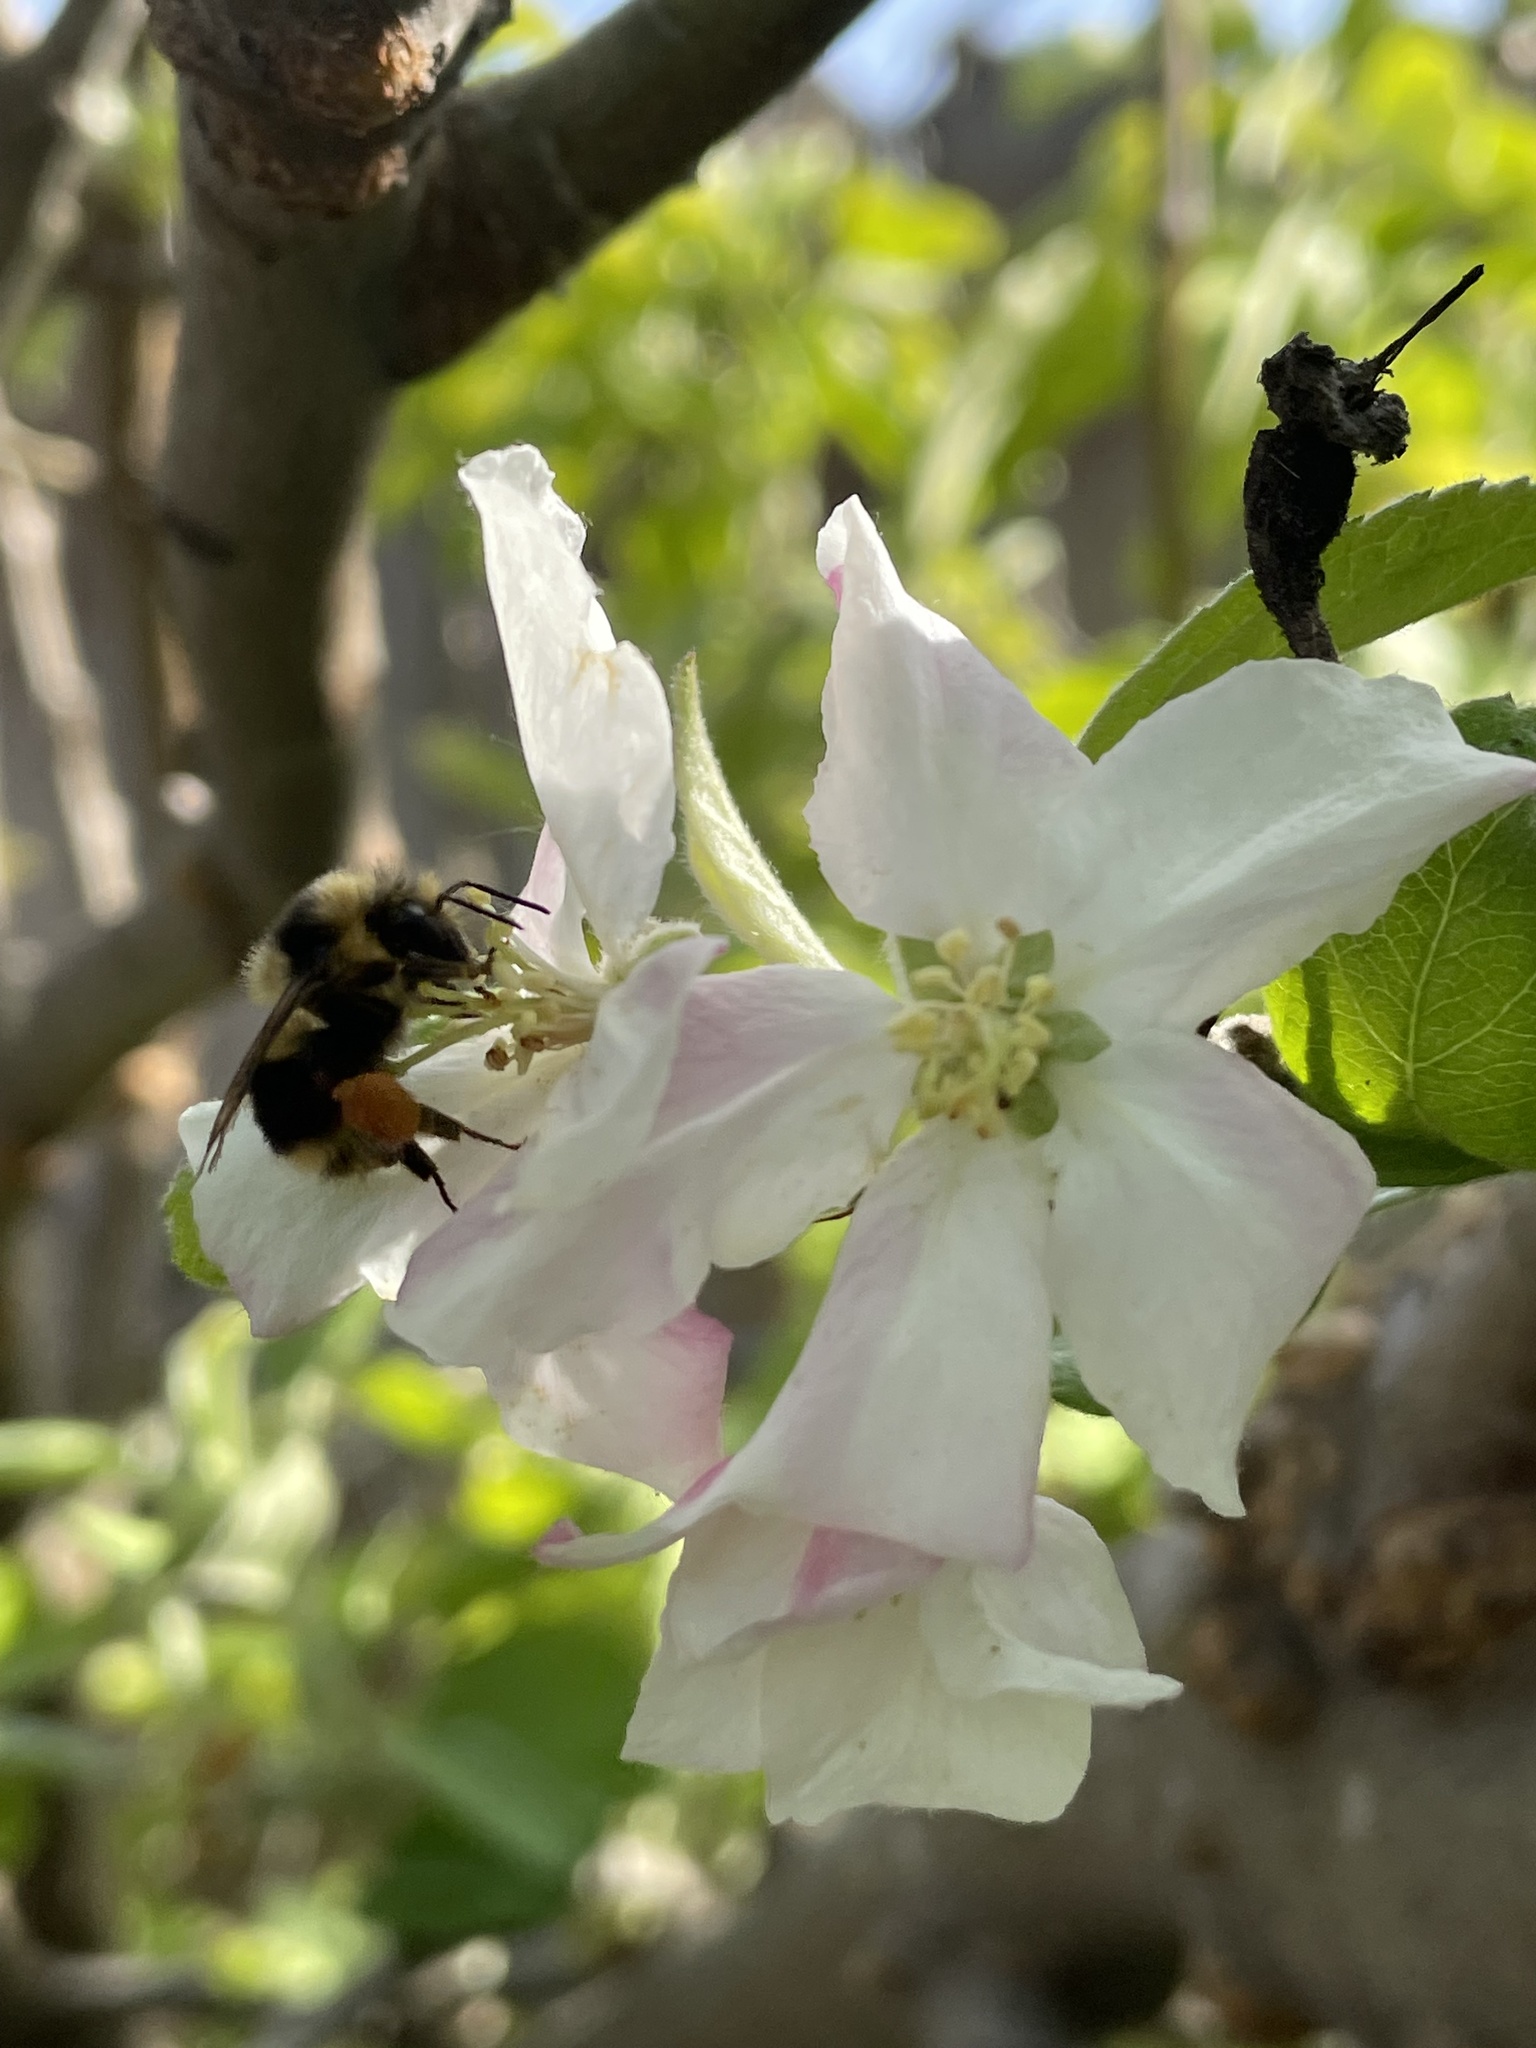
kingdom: Animalia
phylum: Arthropoda
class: Insecta
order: Hymenoptera
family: Apidae
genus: Bombus
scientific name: Bombus melanopygus
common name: Black tail bumble bee
